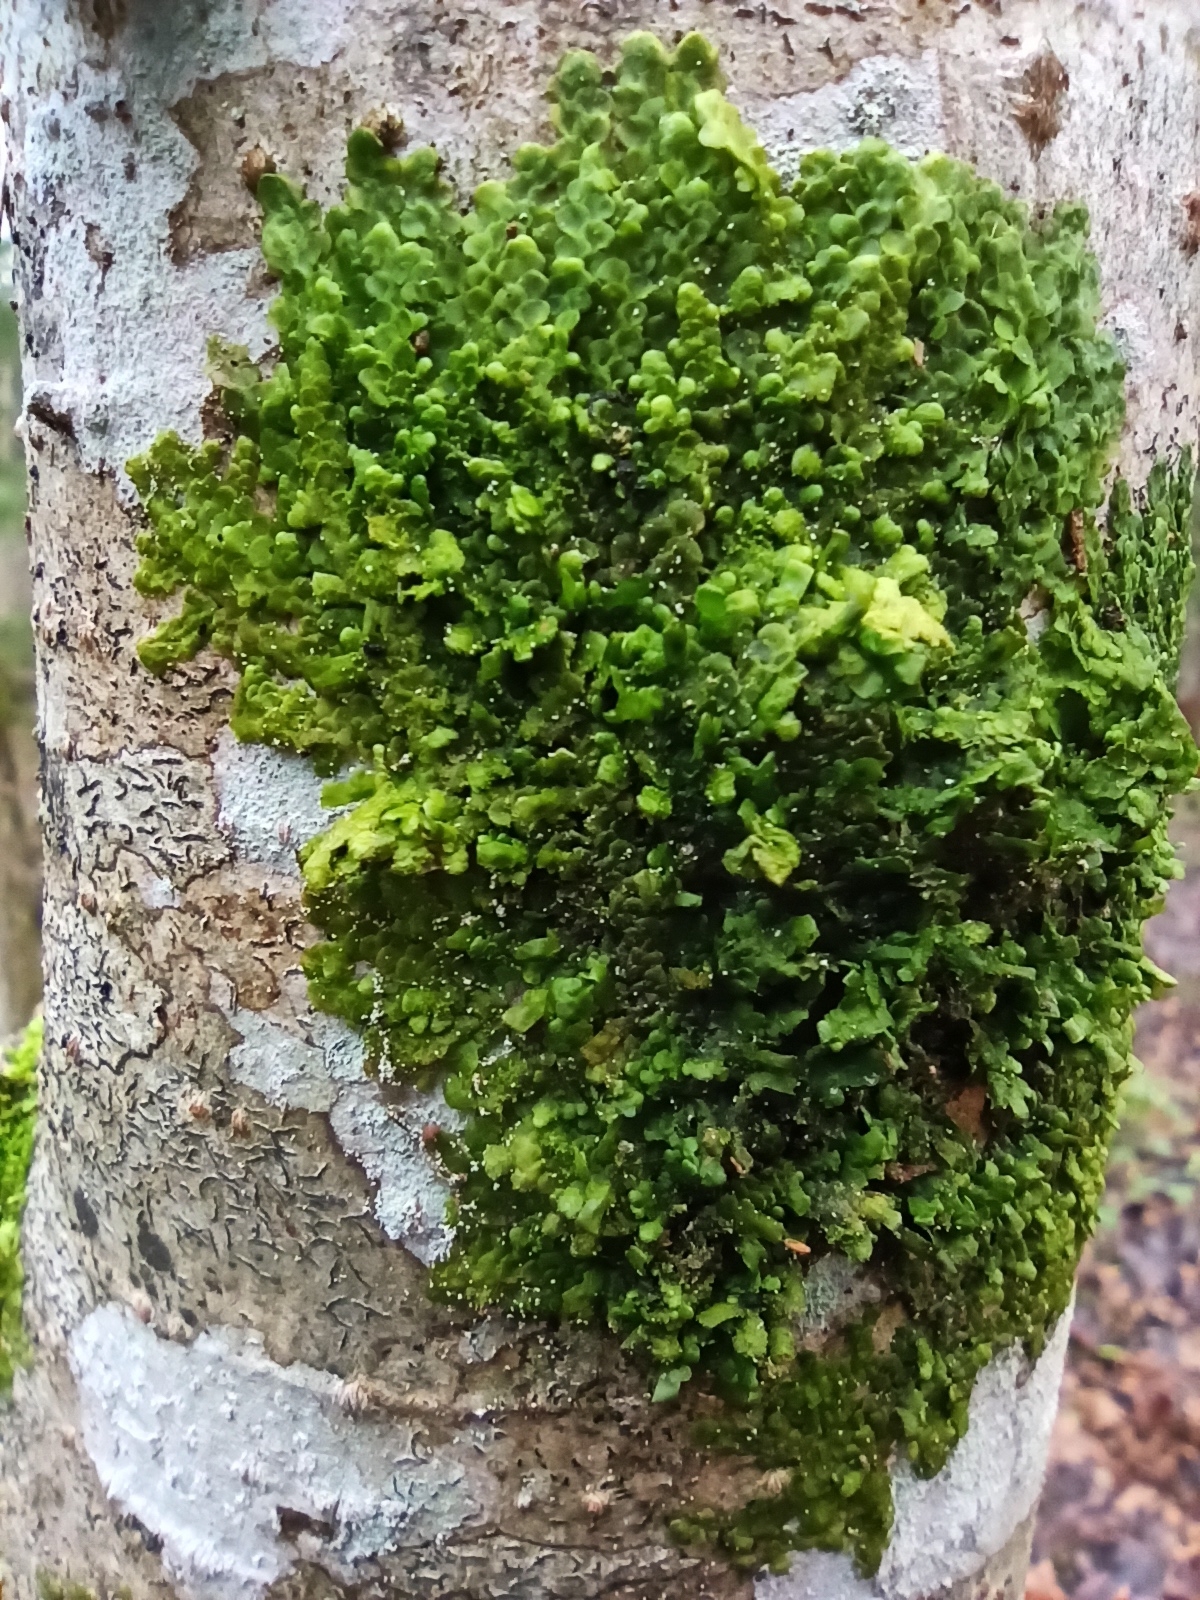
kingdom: Plantae
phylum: Marchantiophyta
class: Jungermanniopsida
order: Porellales
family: Radulaceae
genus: Radula
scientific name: Radula complanata
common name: Flat-leaved scalewort
